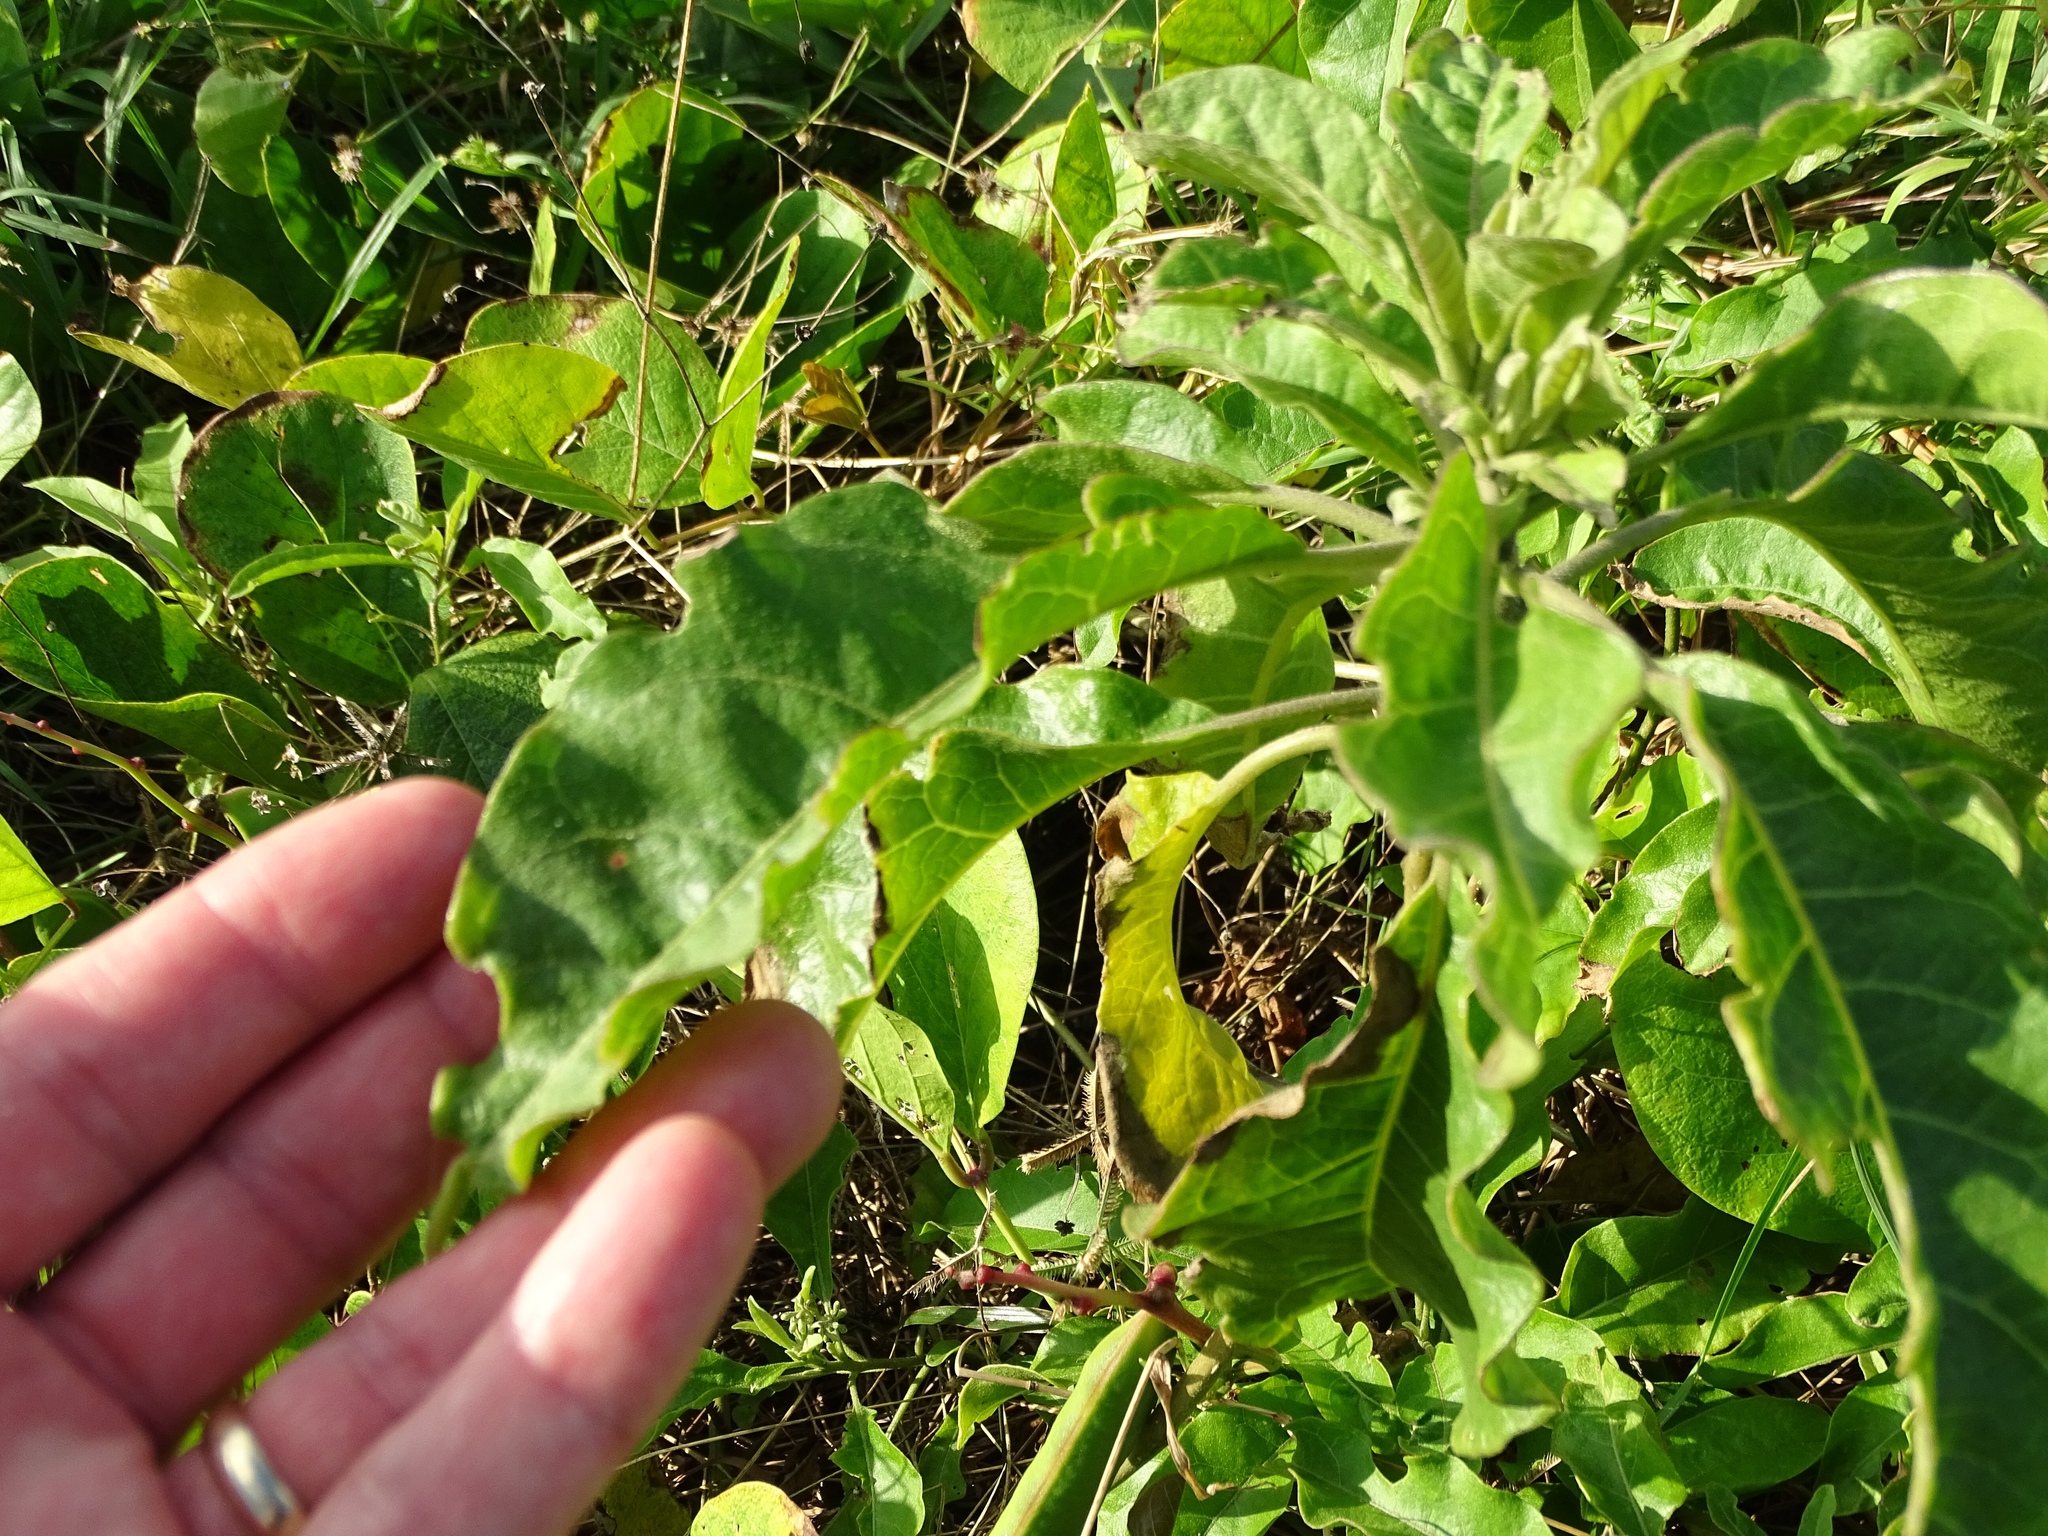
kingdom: Plantae
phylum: Tracheophyta
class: Magnoliopsida
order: Fabales
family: Fabaceae
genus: Canavalia
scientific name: Canavalia rosea
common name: Beach-bean
